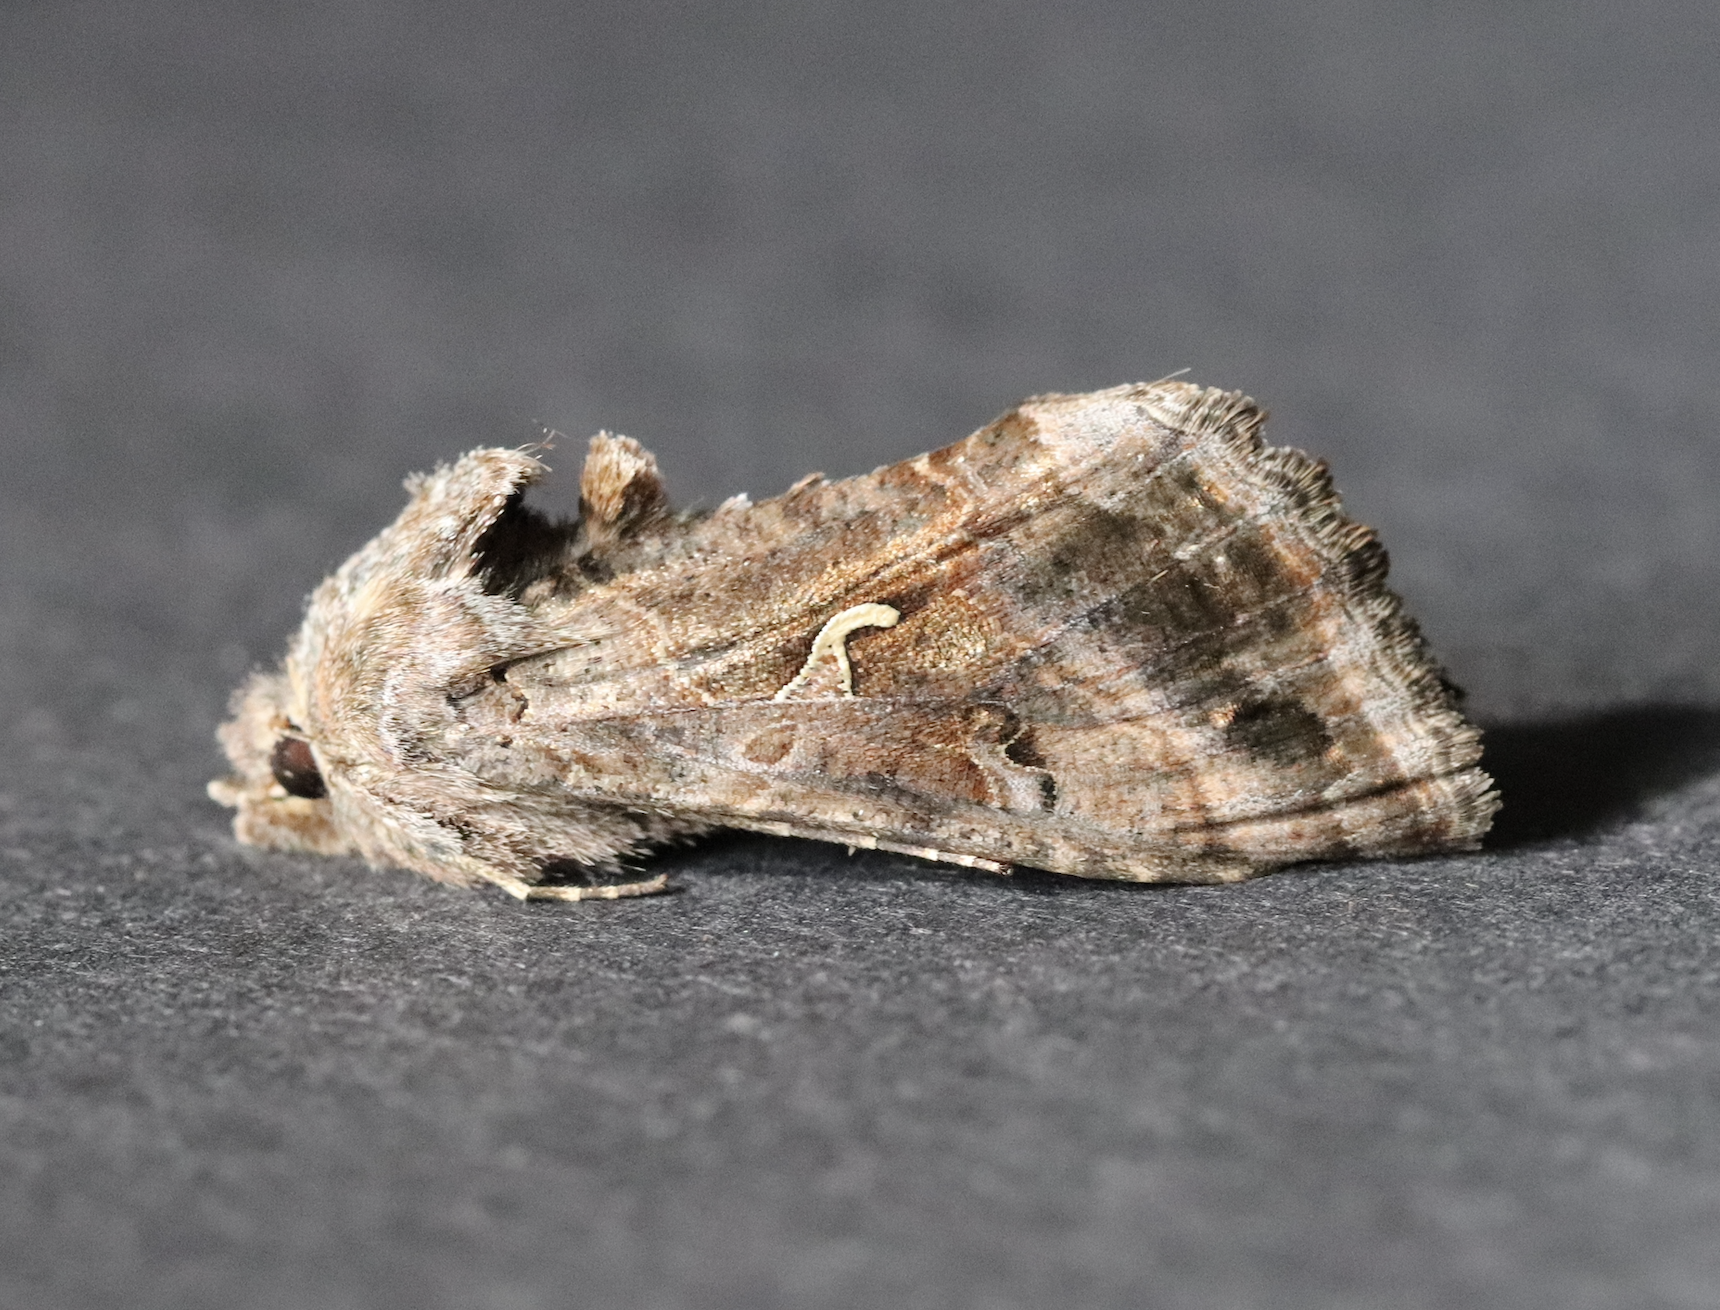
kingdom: Animalia
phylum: Arthropoda
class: Insecta
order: Lepidoptera
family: Noctuidae
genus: Autographa
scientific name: Autographa gamma
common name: Silver y
